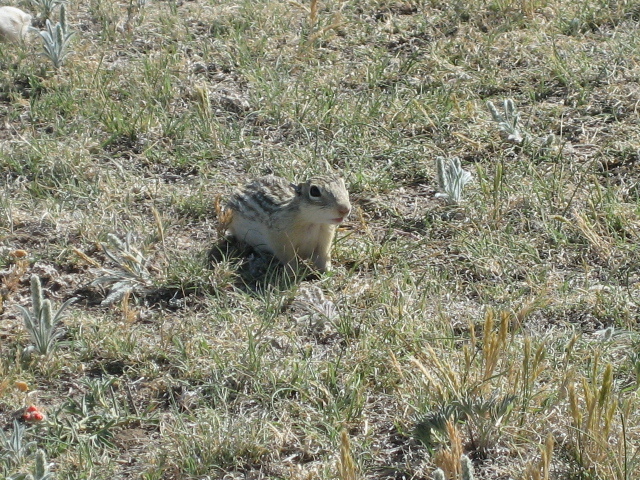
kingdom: Animalia
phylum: Chordata
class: Mammalia
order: Rodentia
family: Sciuridae
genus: Ictidomys
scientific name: Ictidomys tridecemlineatus
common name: Thirteen-lined ground squirrel
